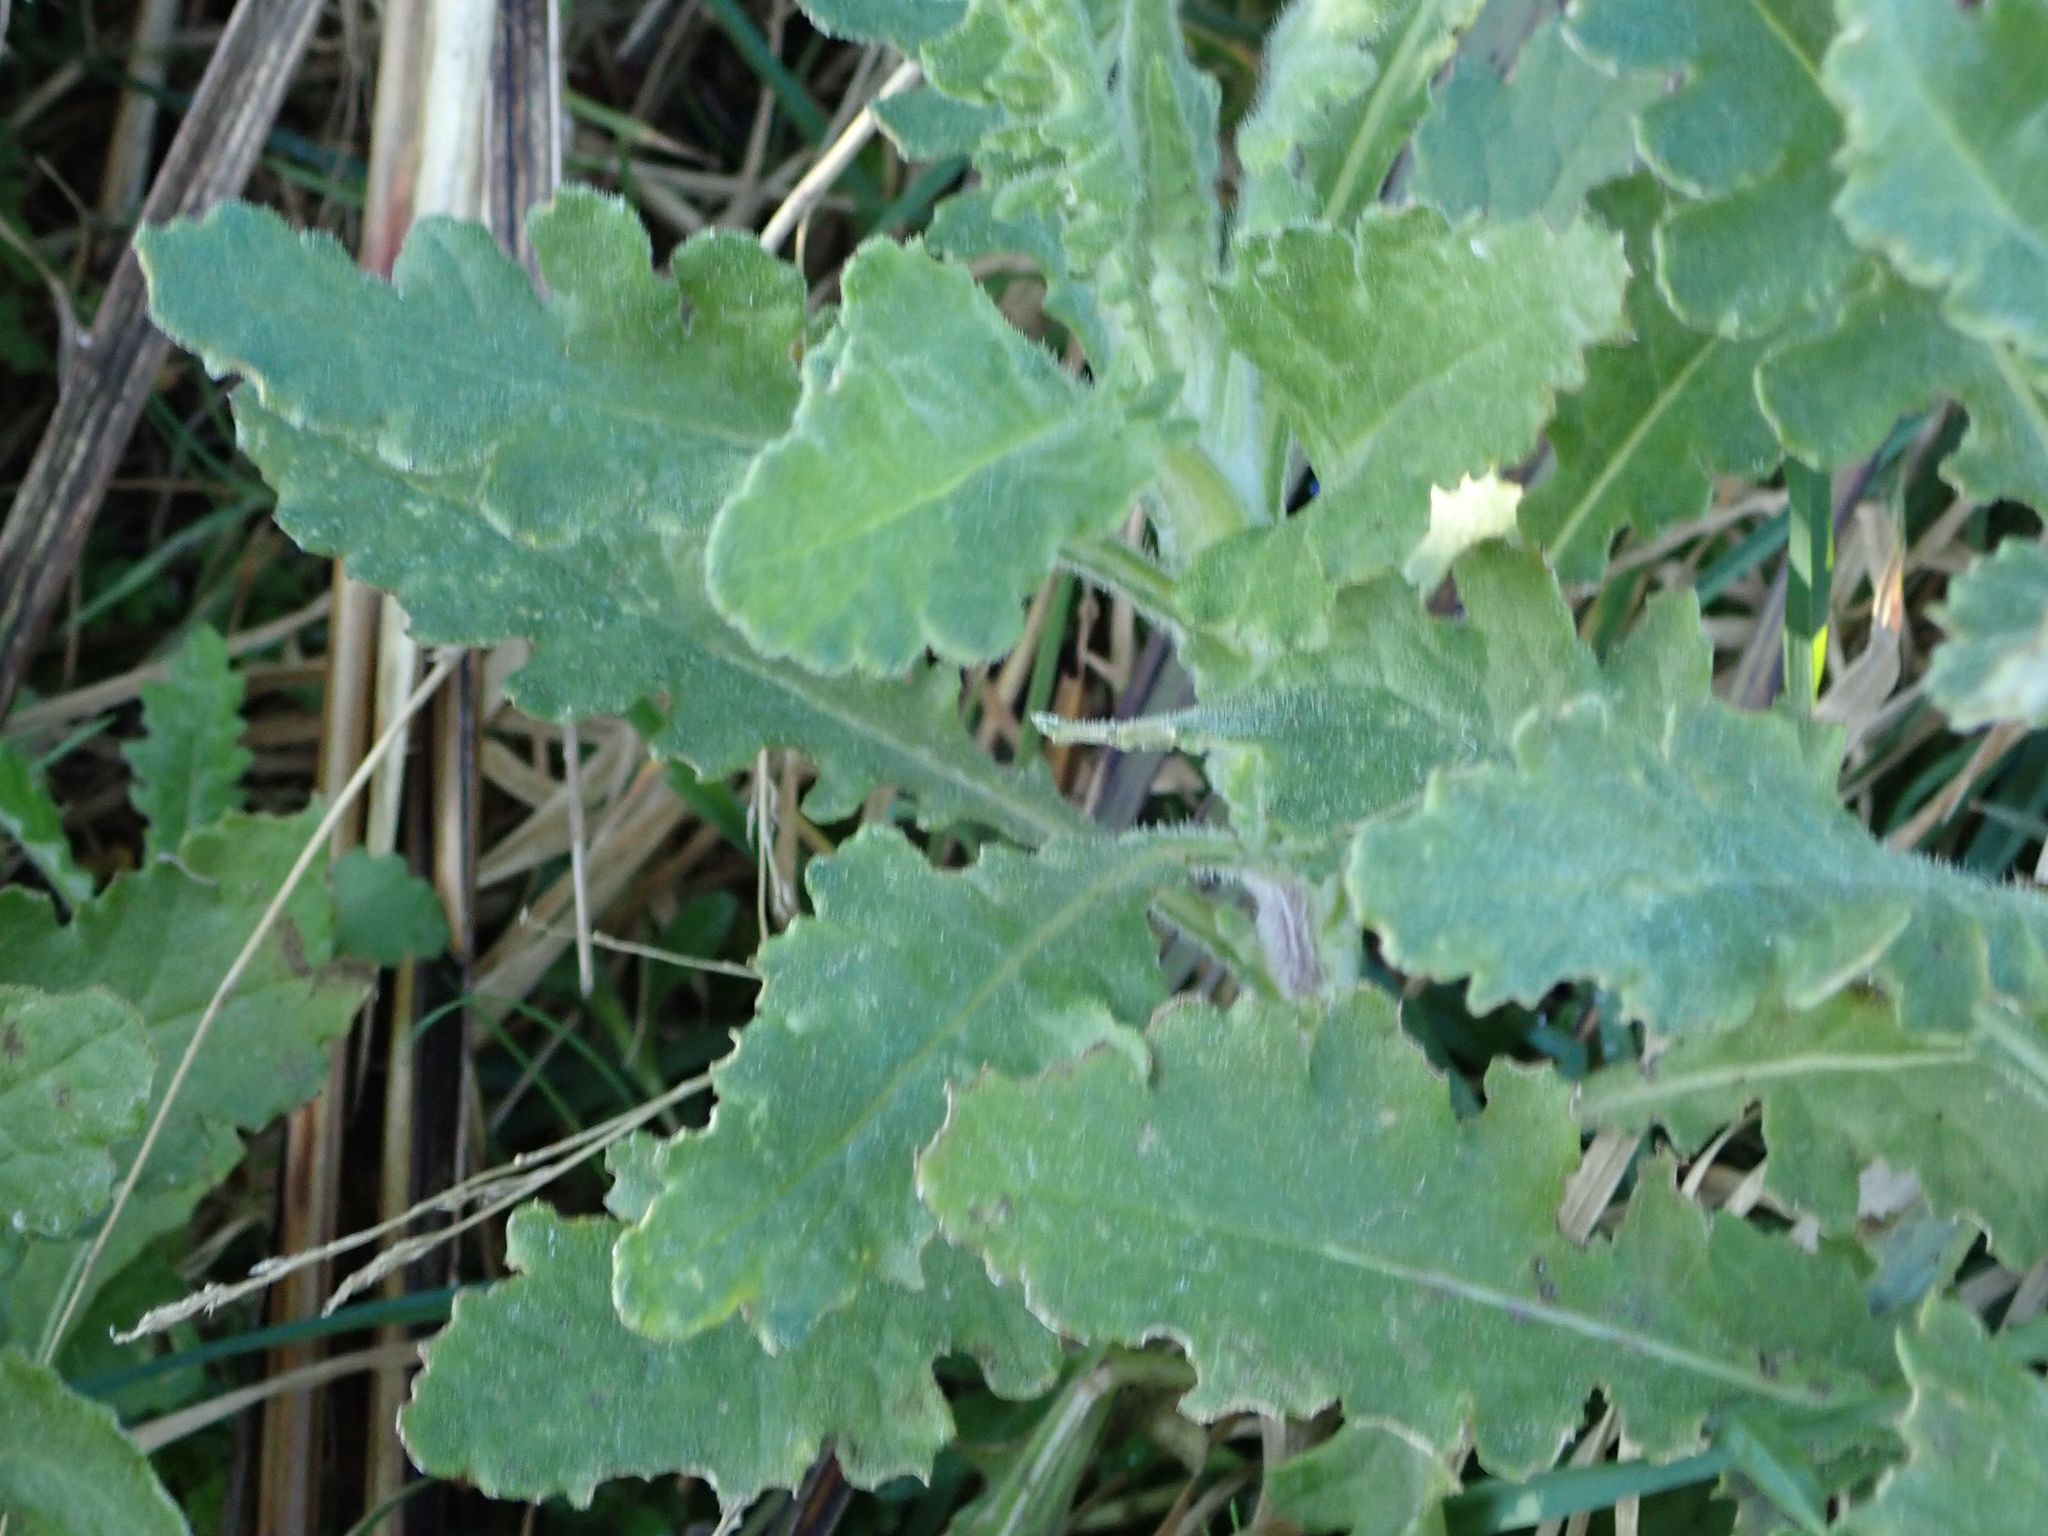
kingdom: Plantae
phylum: Tracheophyta
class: Magnoliopsida
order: Asterales
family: Asteraceae
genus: Senecio
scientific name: Senecio glomeratus
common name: Cutleaf burnweed
